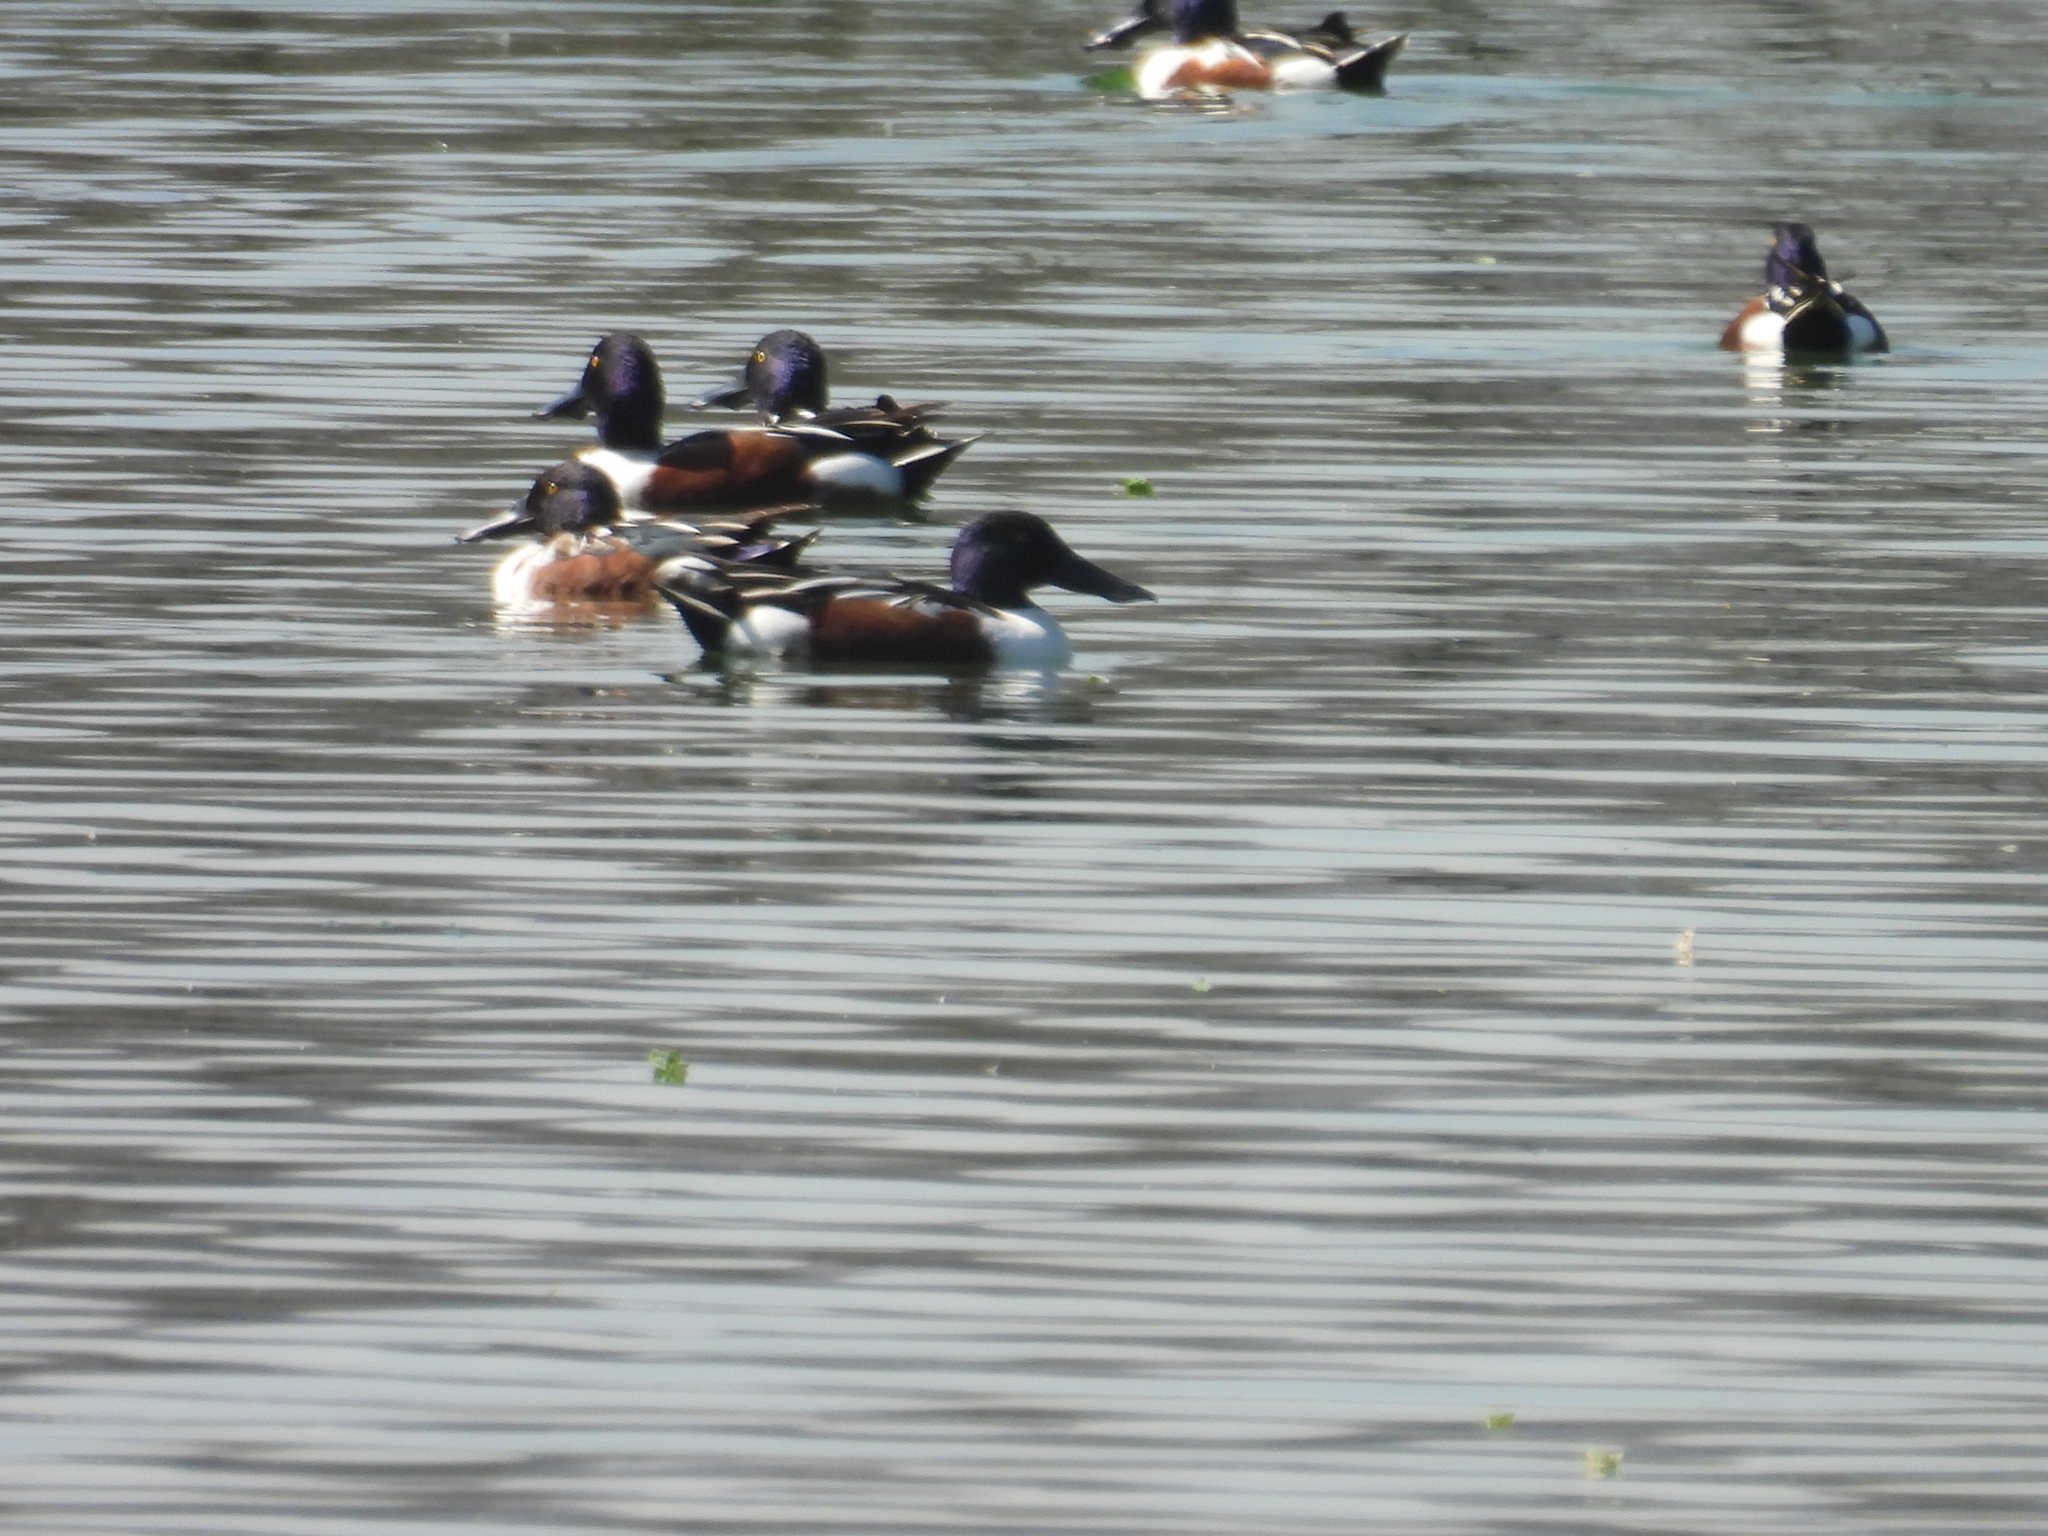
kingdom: Animalia
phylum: Chordata
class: Aves
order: Anseriformes
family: Anatidae
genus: Spatula
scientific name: Spatula clypeata
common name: Northern shoveler
